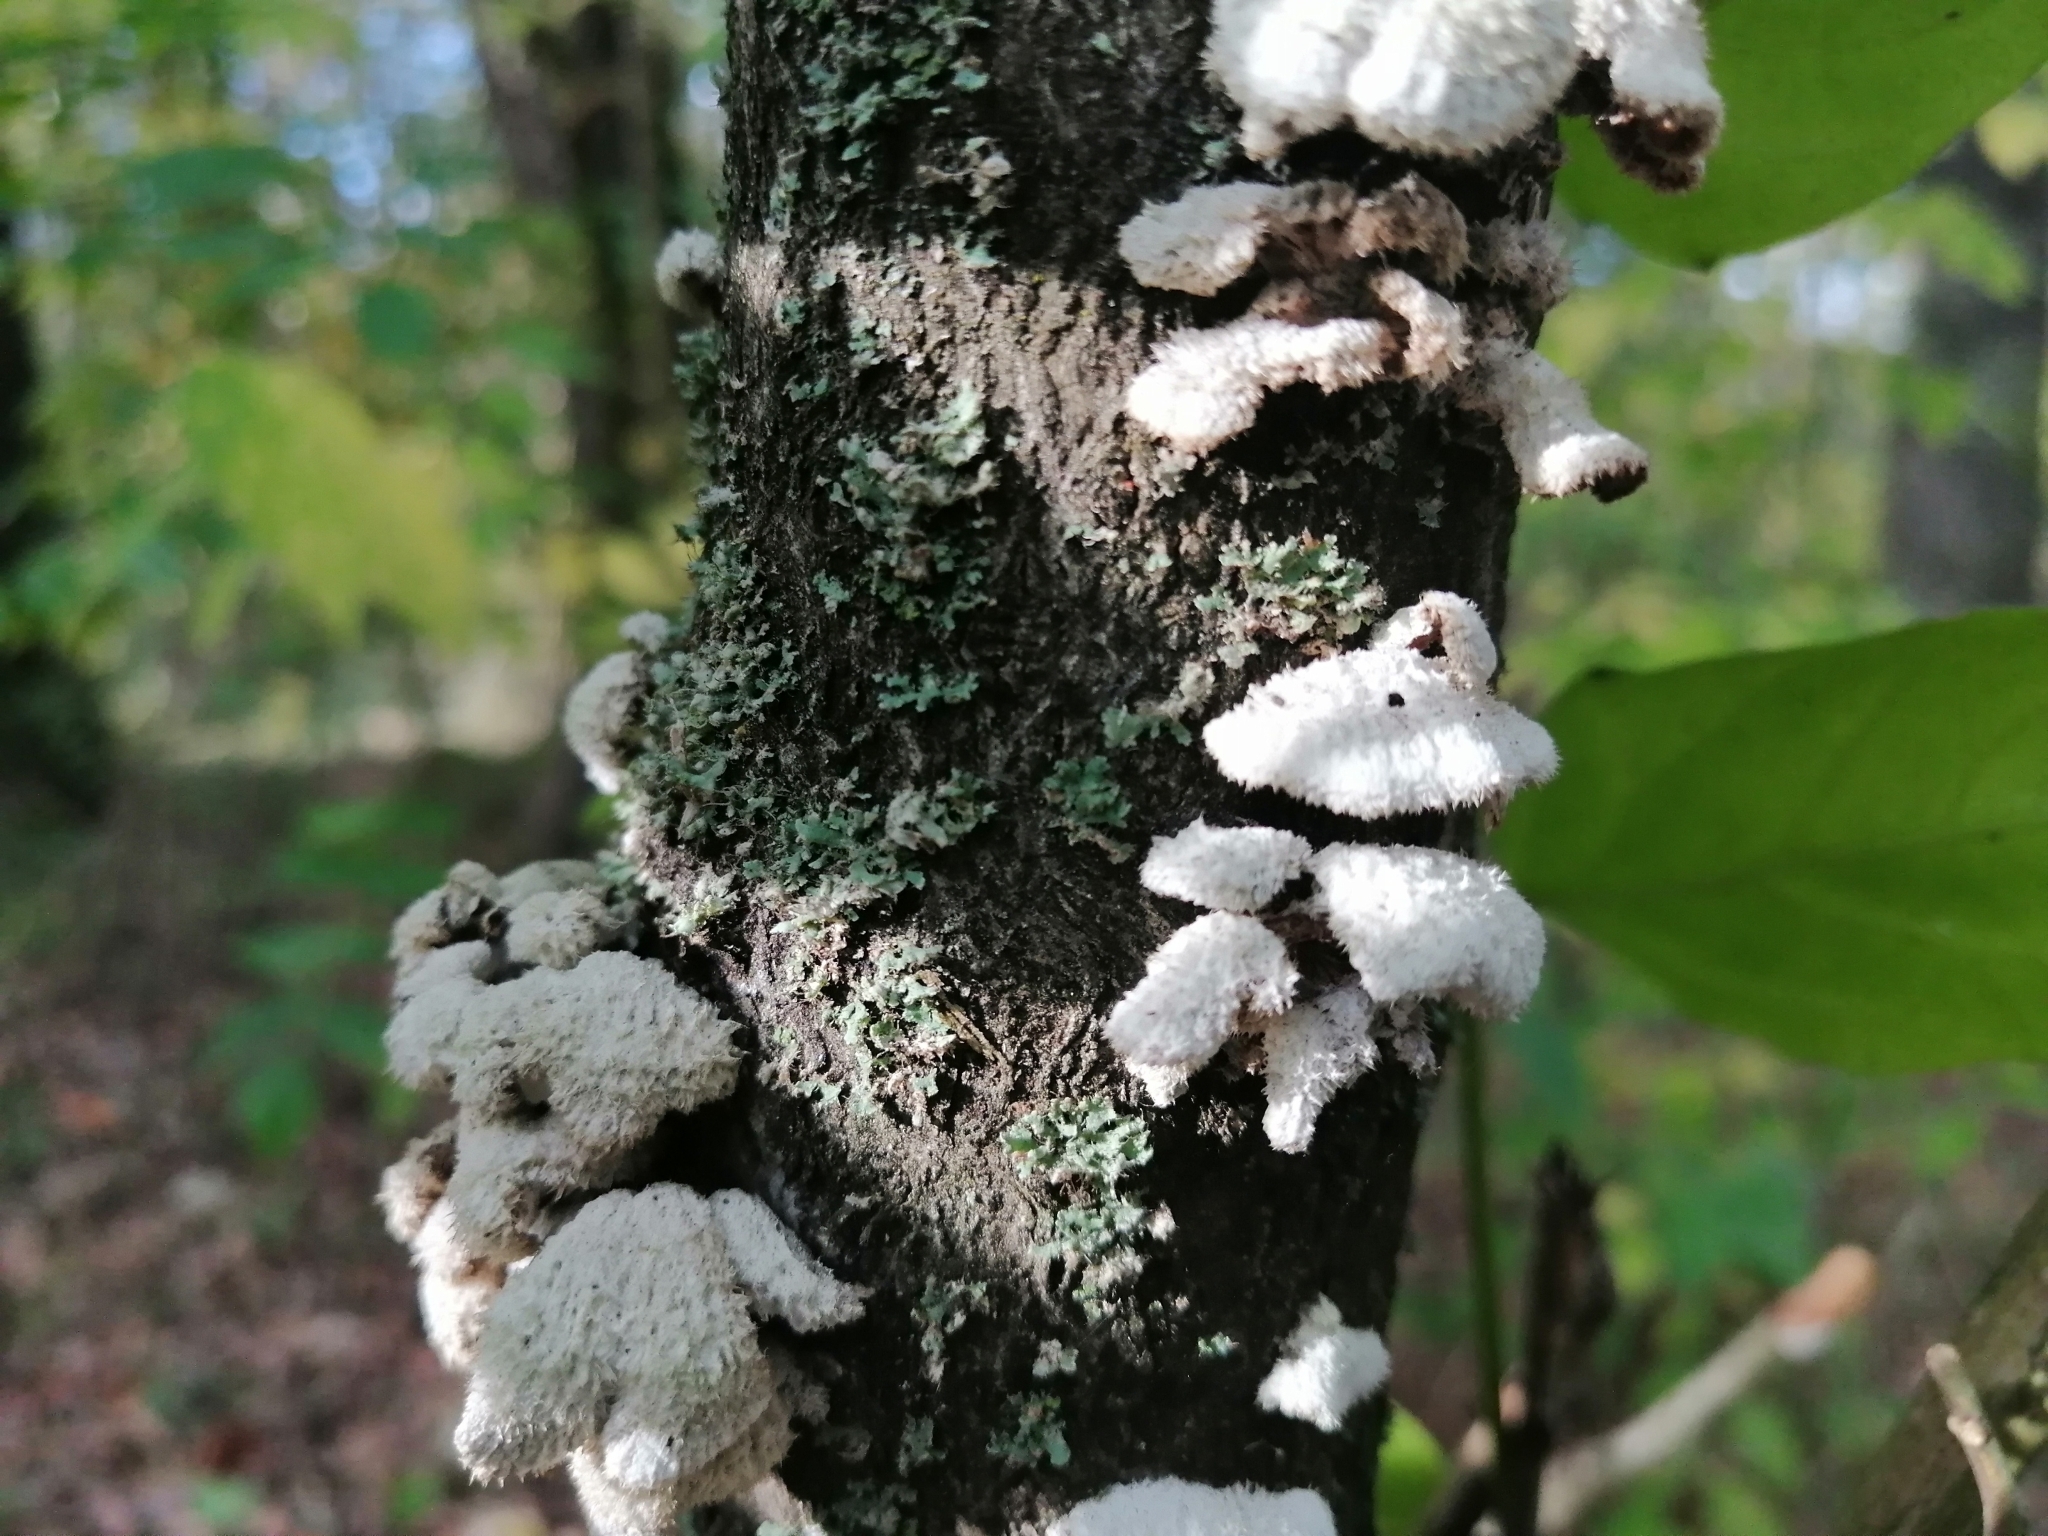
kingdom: Fungi
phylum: Basidiomycota
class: Agaricomycetes
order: Agaricales
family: Schizophyllaceae
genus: Schizophyllum
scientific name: Schizophyllum commune
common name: Common porecrust
